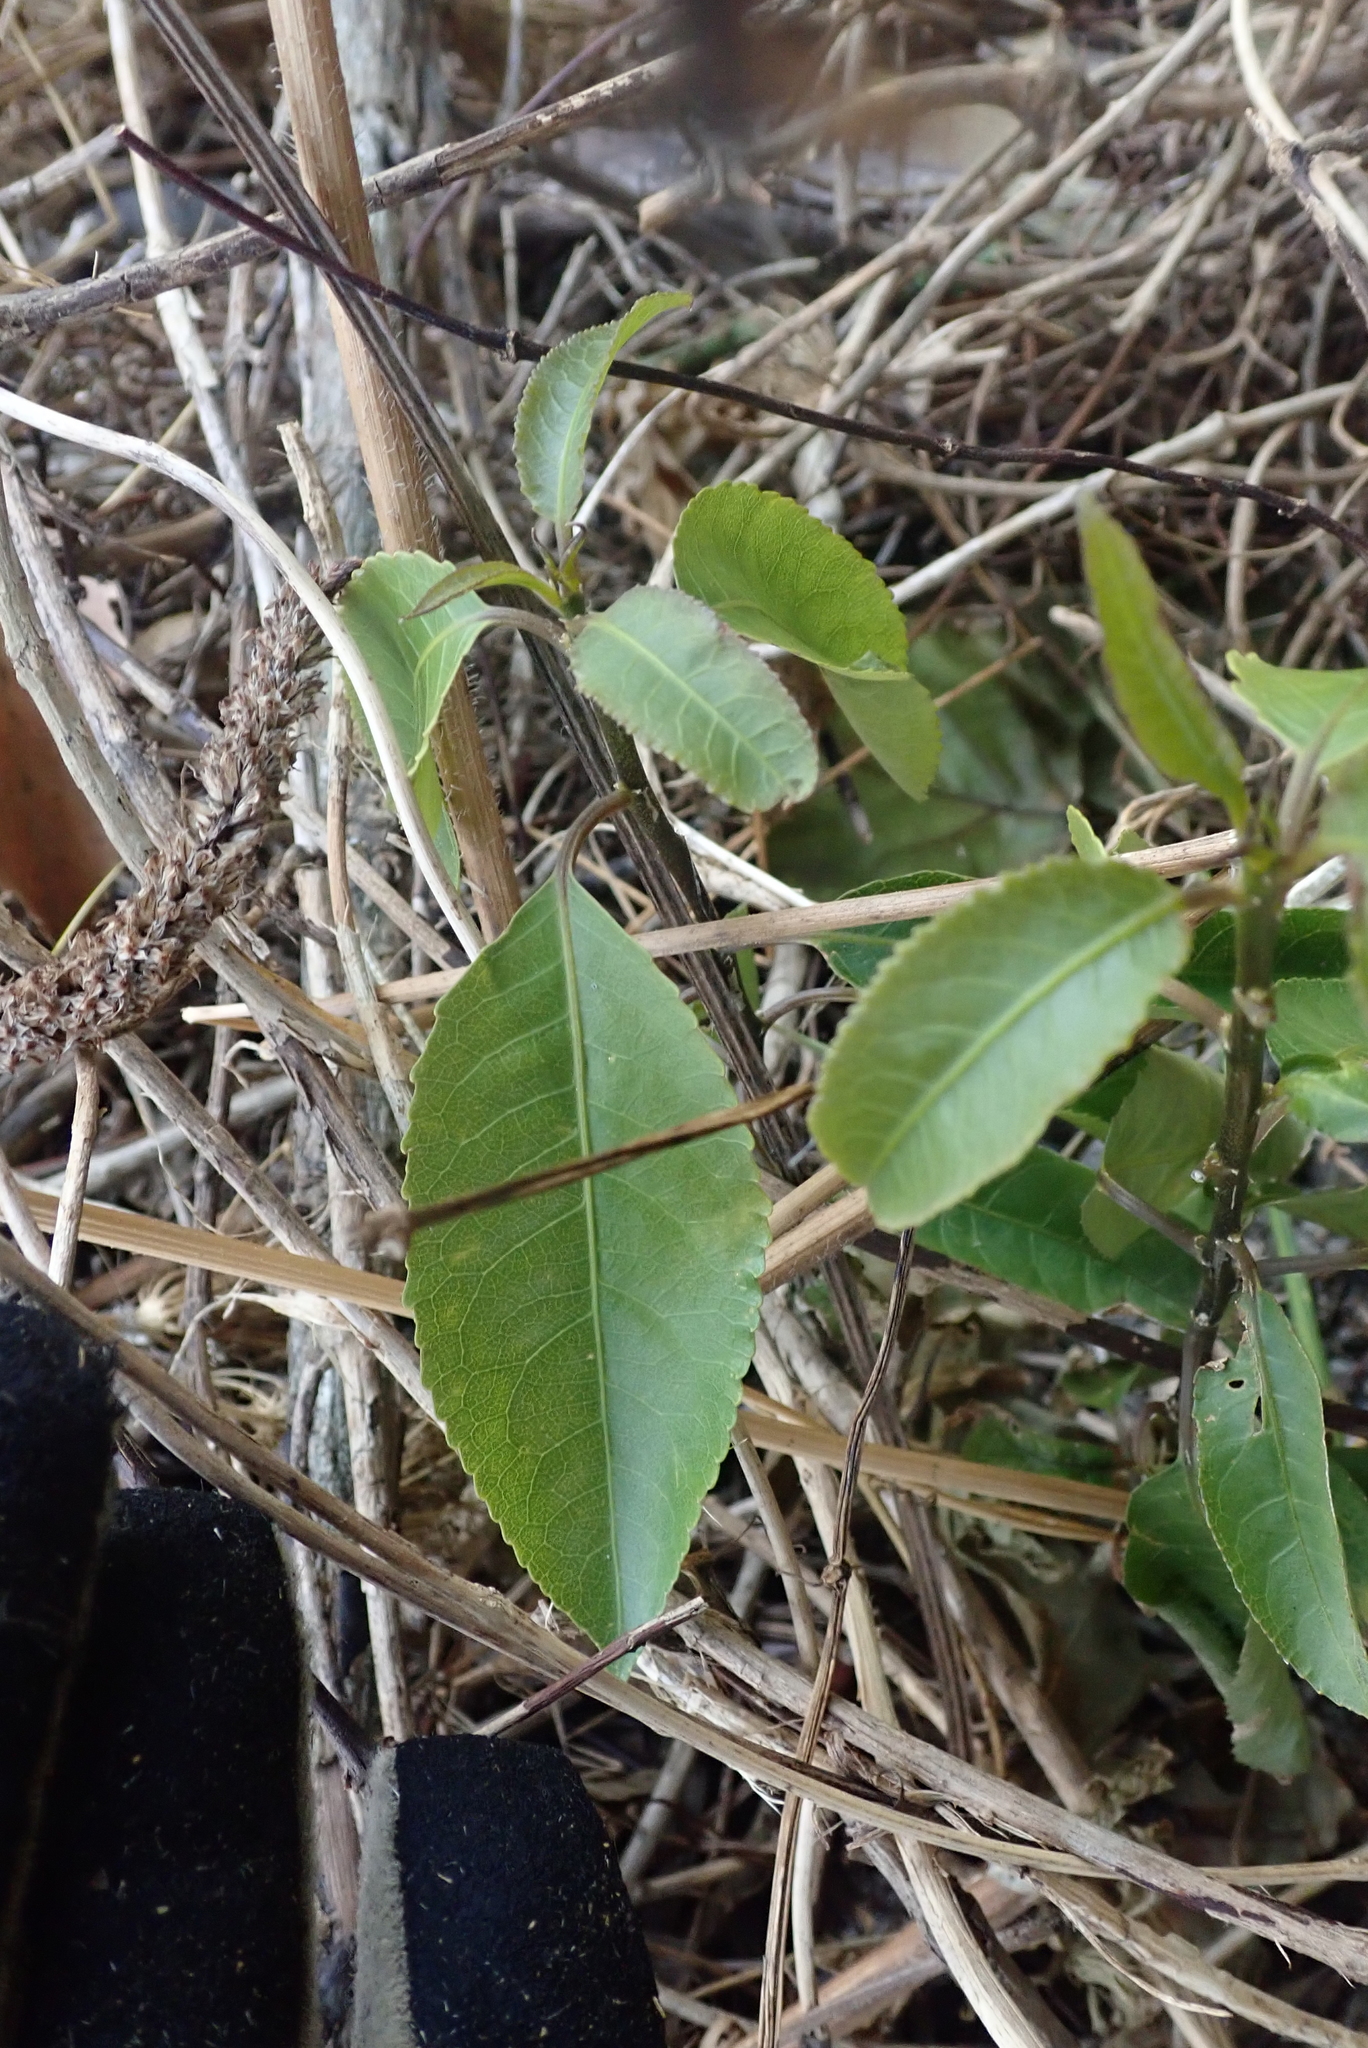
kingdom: Plantae
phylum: Tracheophyta
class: Magnoliopsida
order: Malpighiales
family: Violaceae
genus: Melicytus
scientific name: Melicytus ramiflorus
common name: Mahoe
